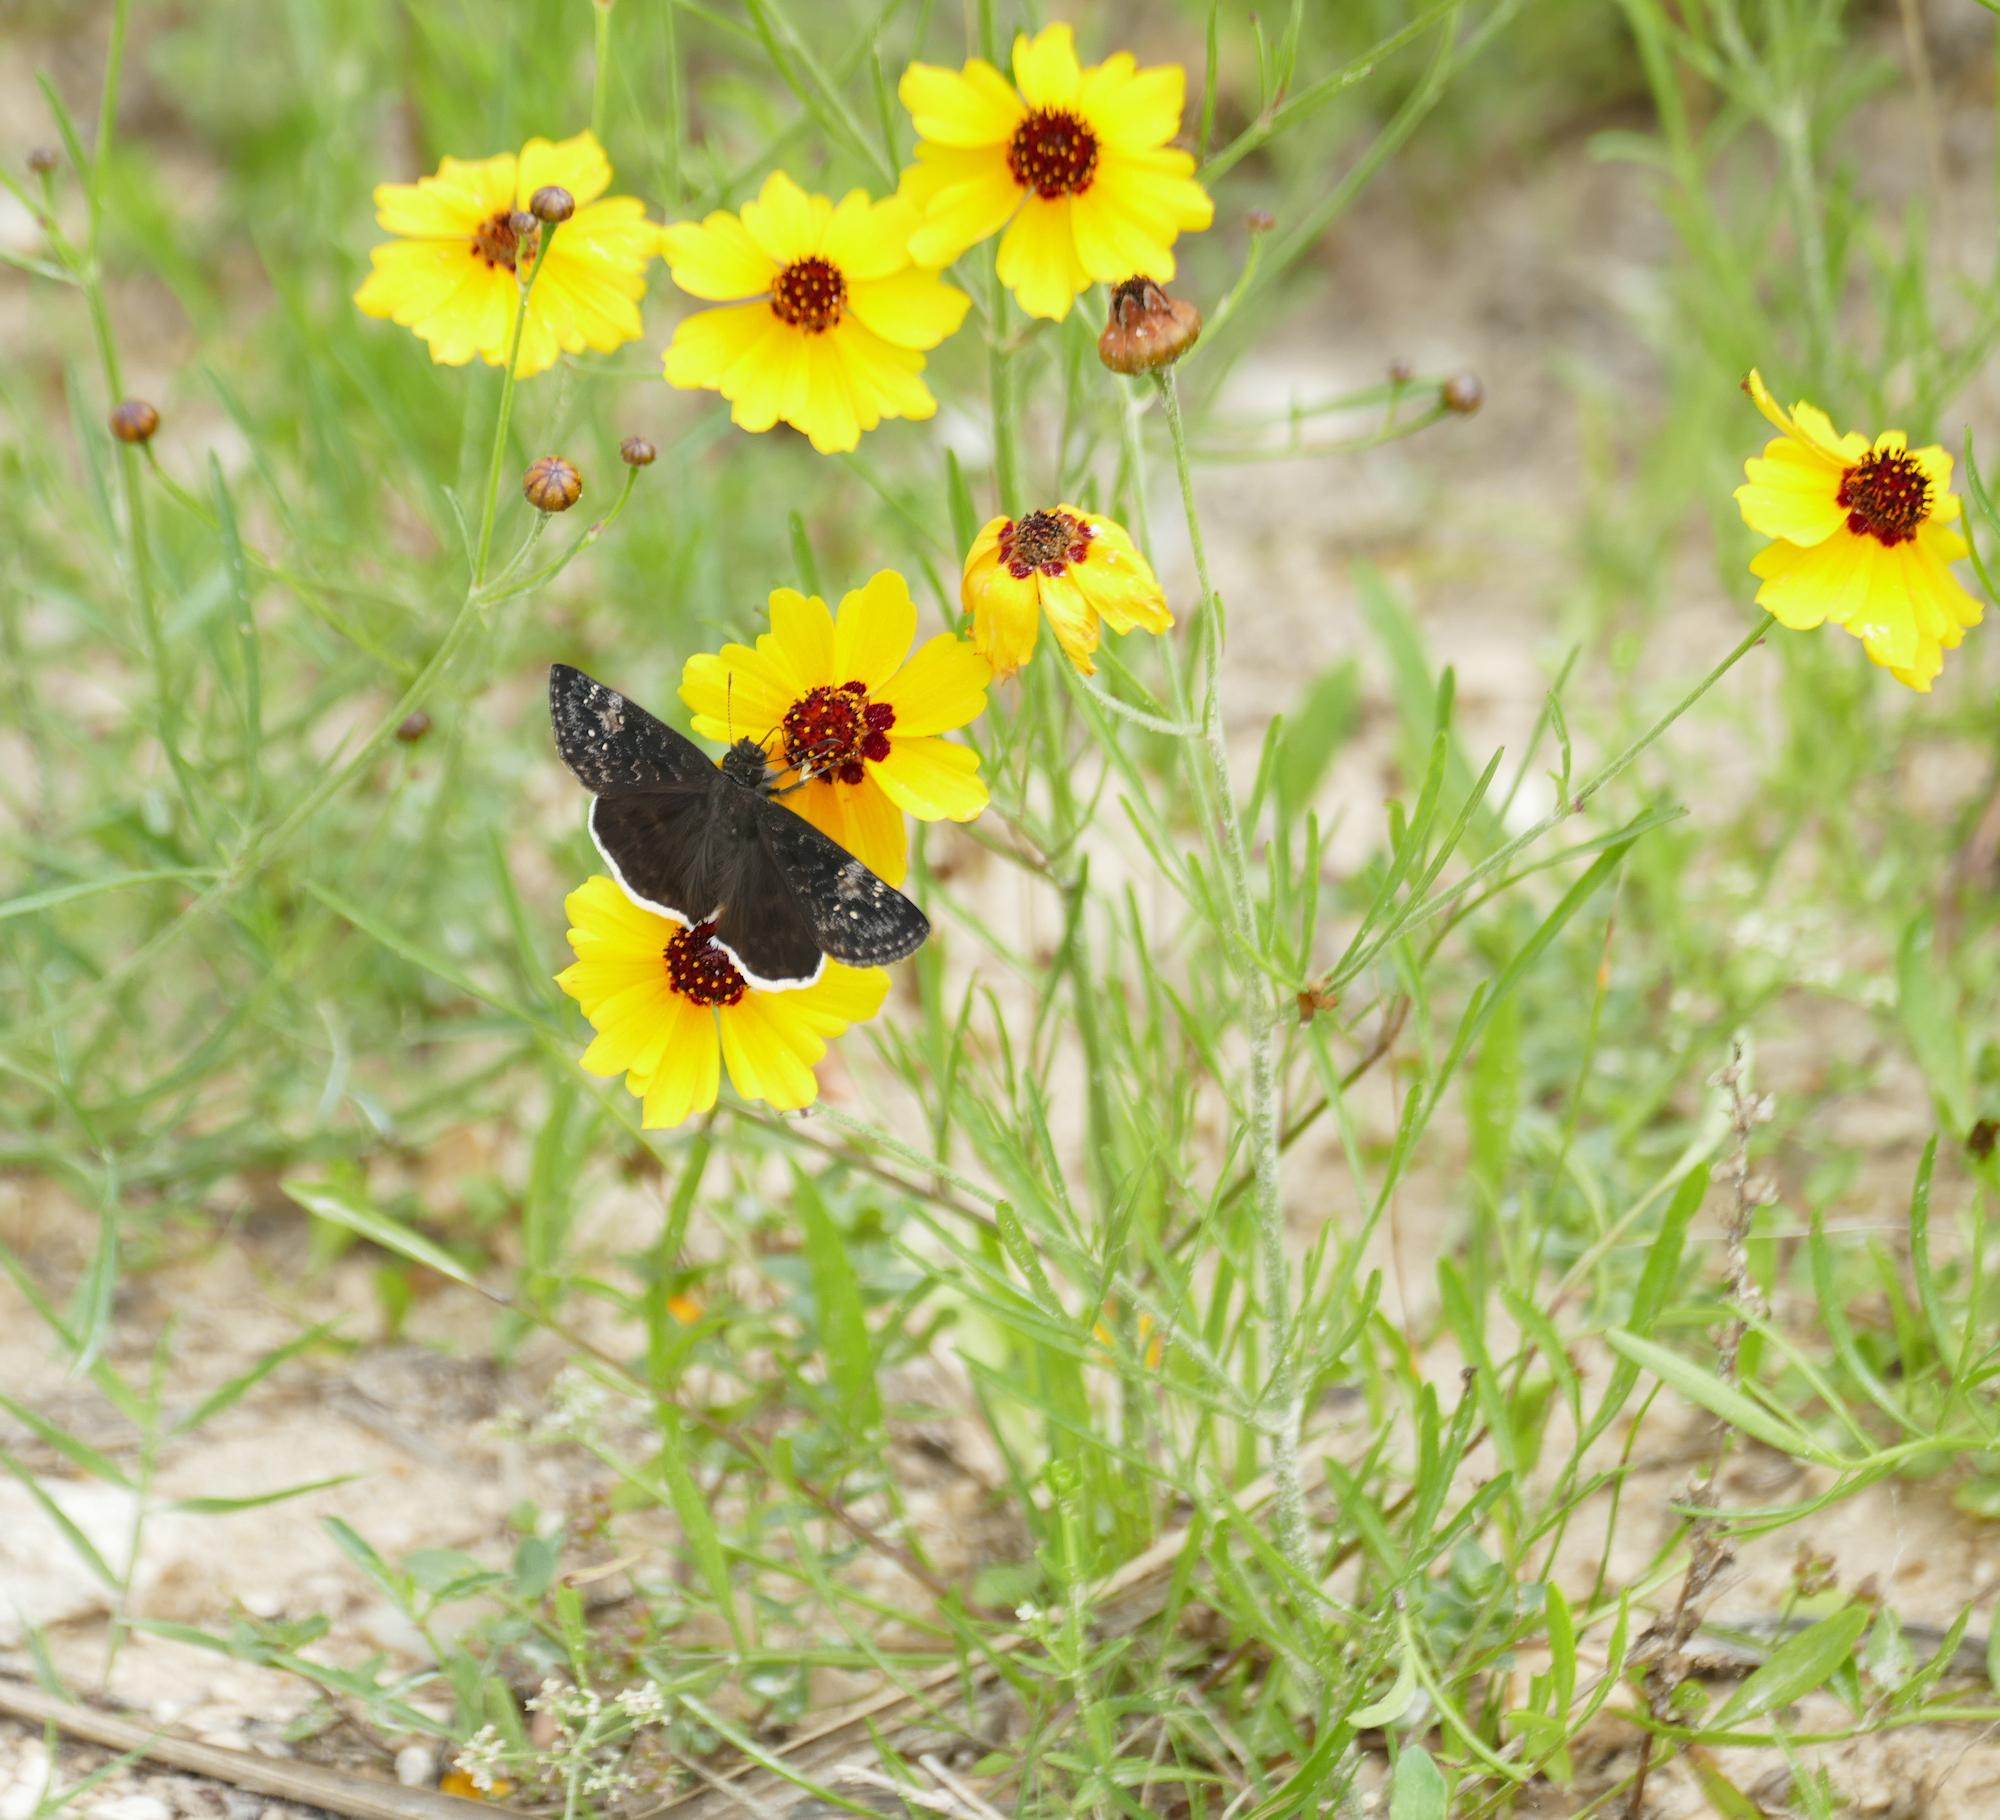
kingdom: Plantae
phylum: Tracheophyta
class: Magnoliopsida
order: Asterales
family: Asteraceae
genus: Thelesperma
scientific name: Thelesperma filifolium
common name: Stiff greenthread
